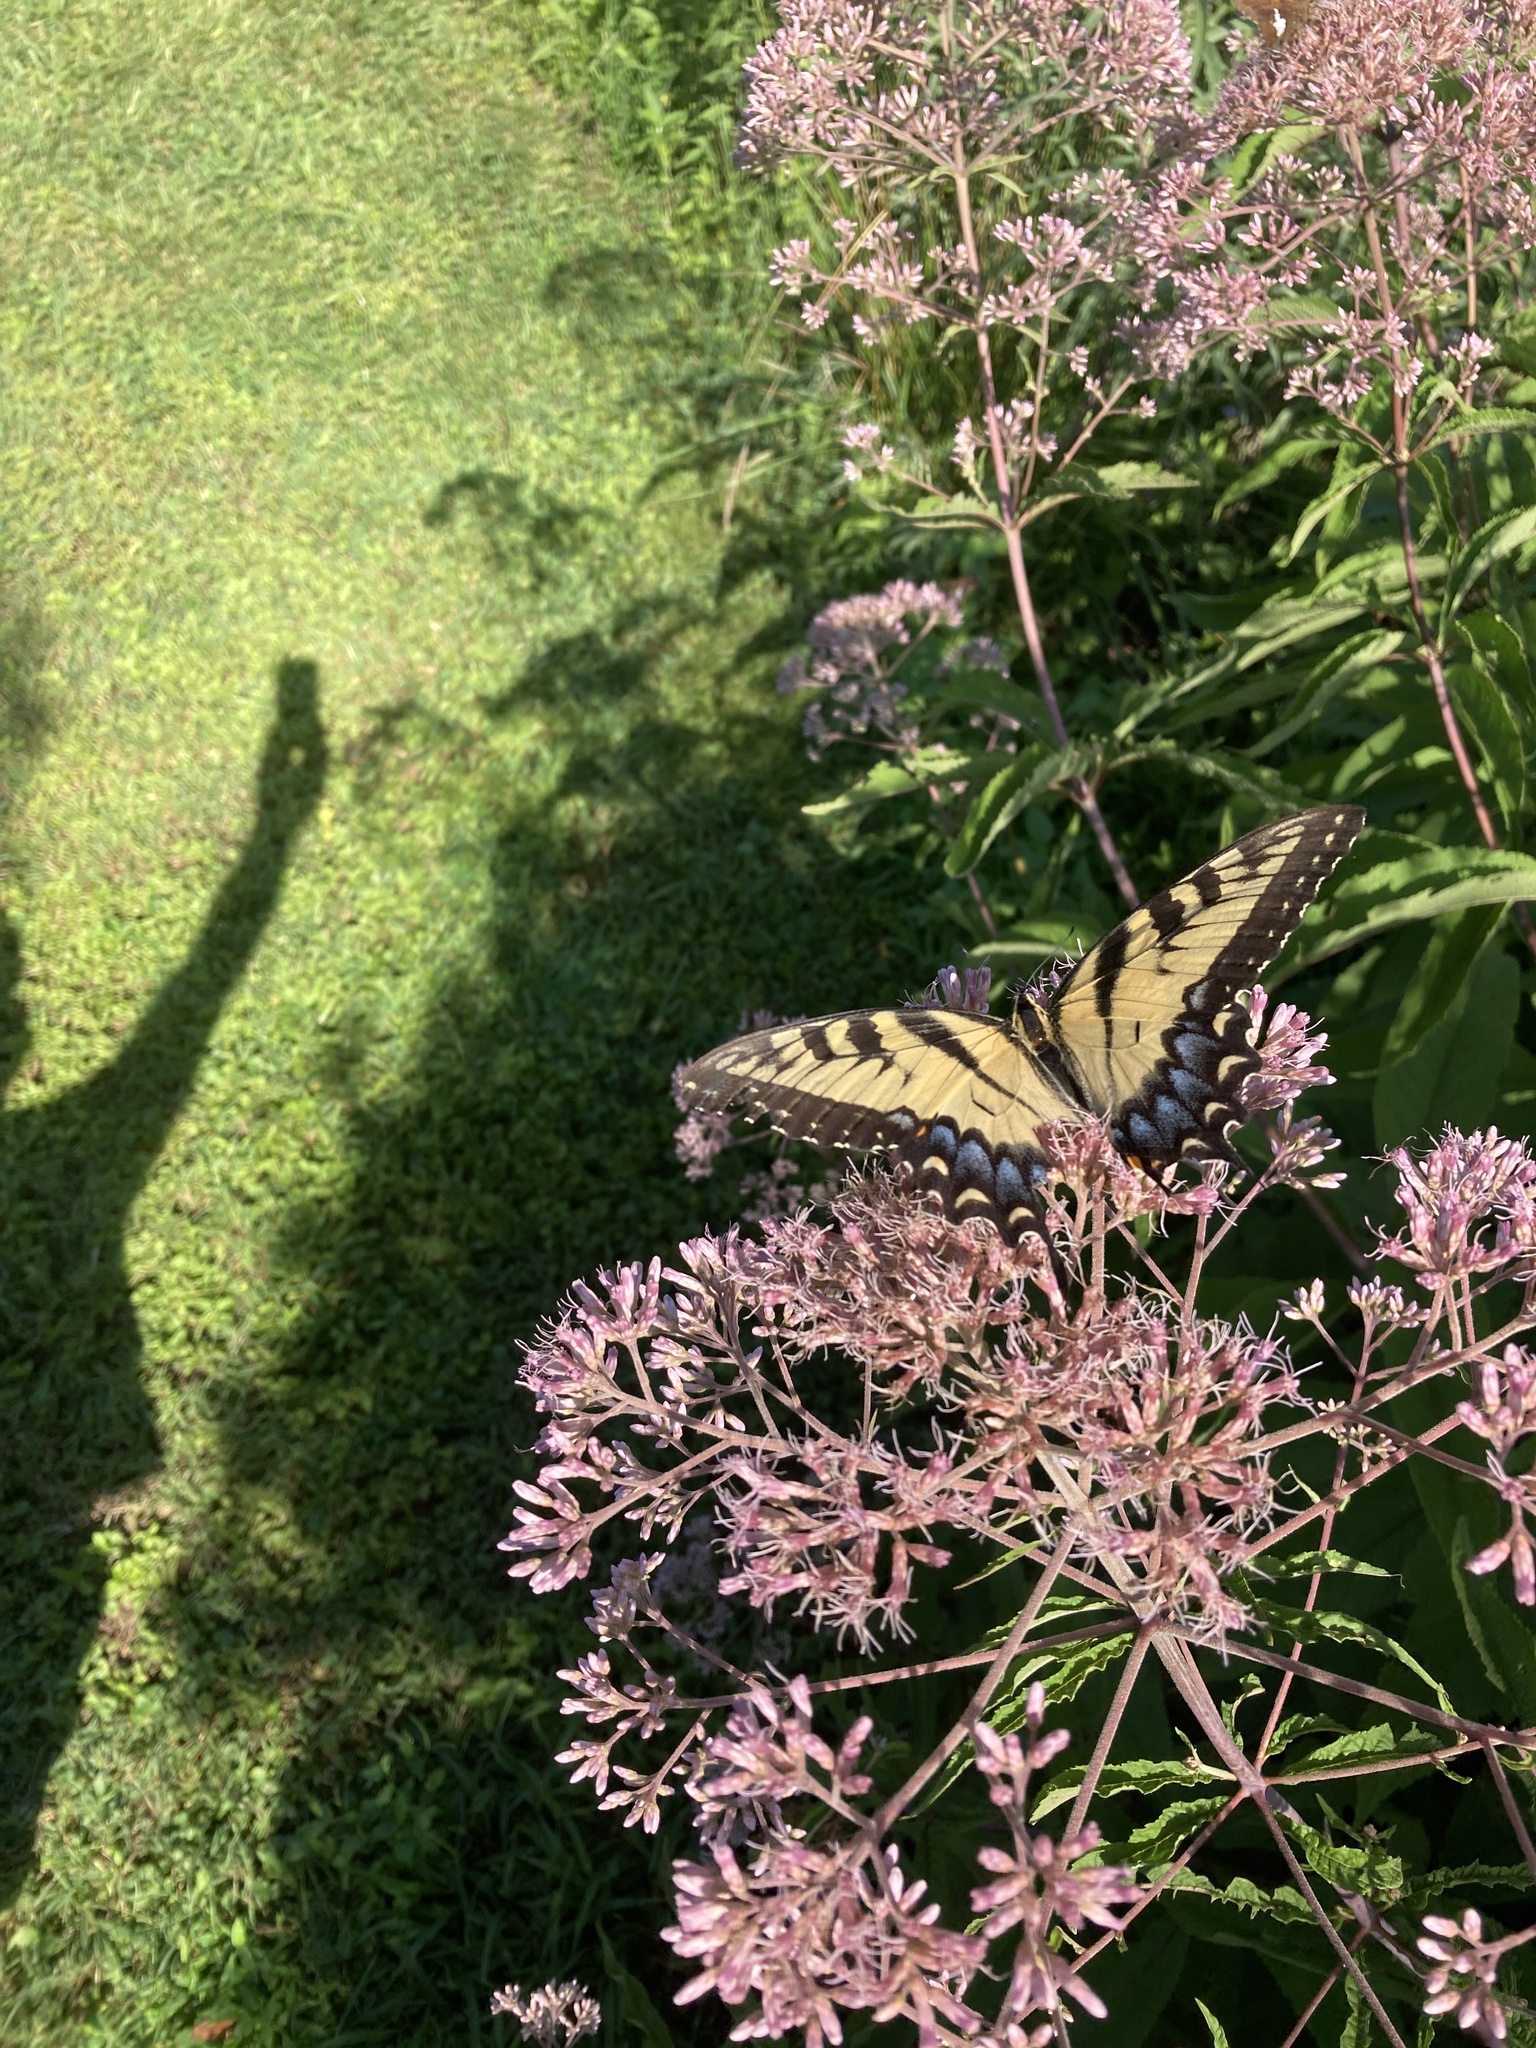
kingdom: Animalia
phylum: Arthropoda
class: Insecta
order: Lepidoptera
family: Papilionidae
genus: Papilio
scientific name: Papilio glaucus
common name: Tiger swallowtail
